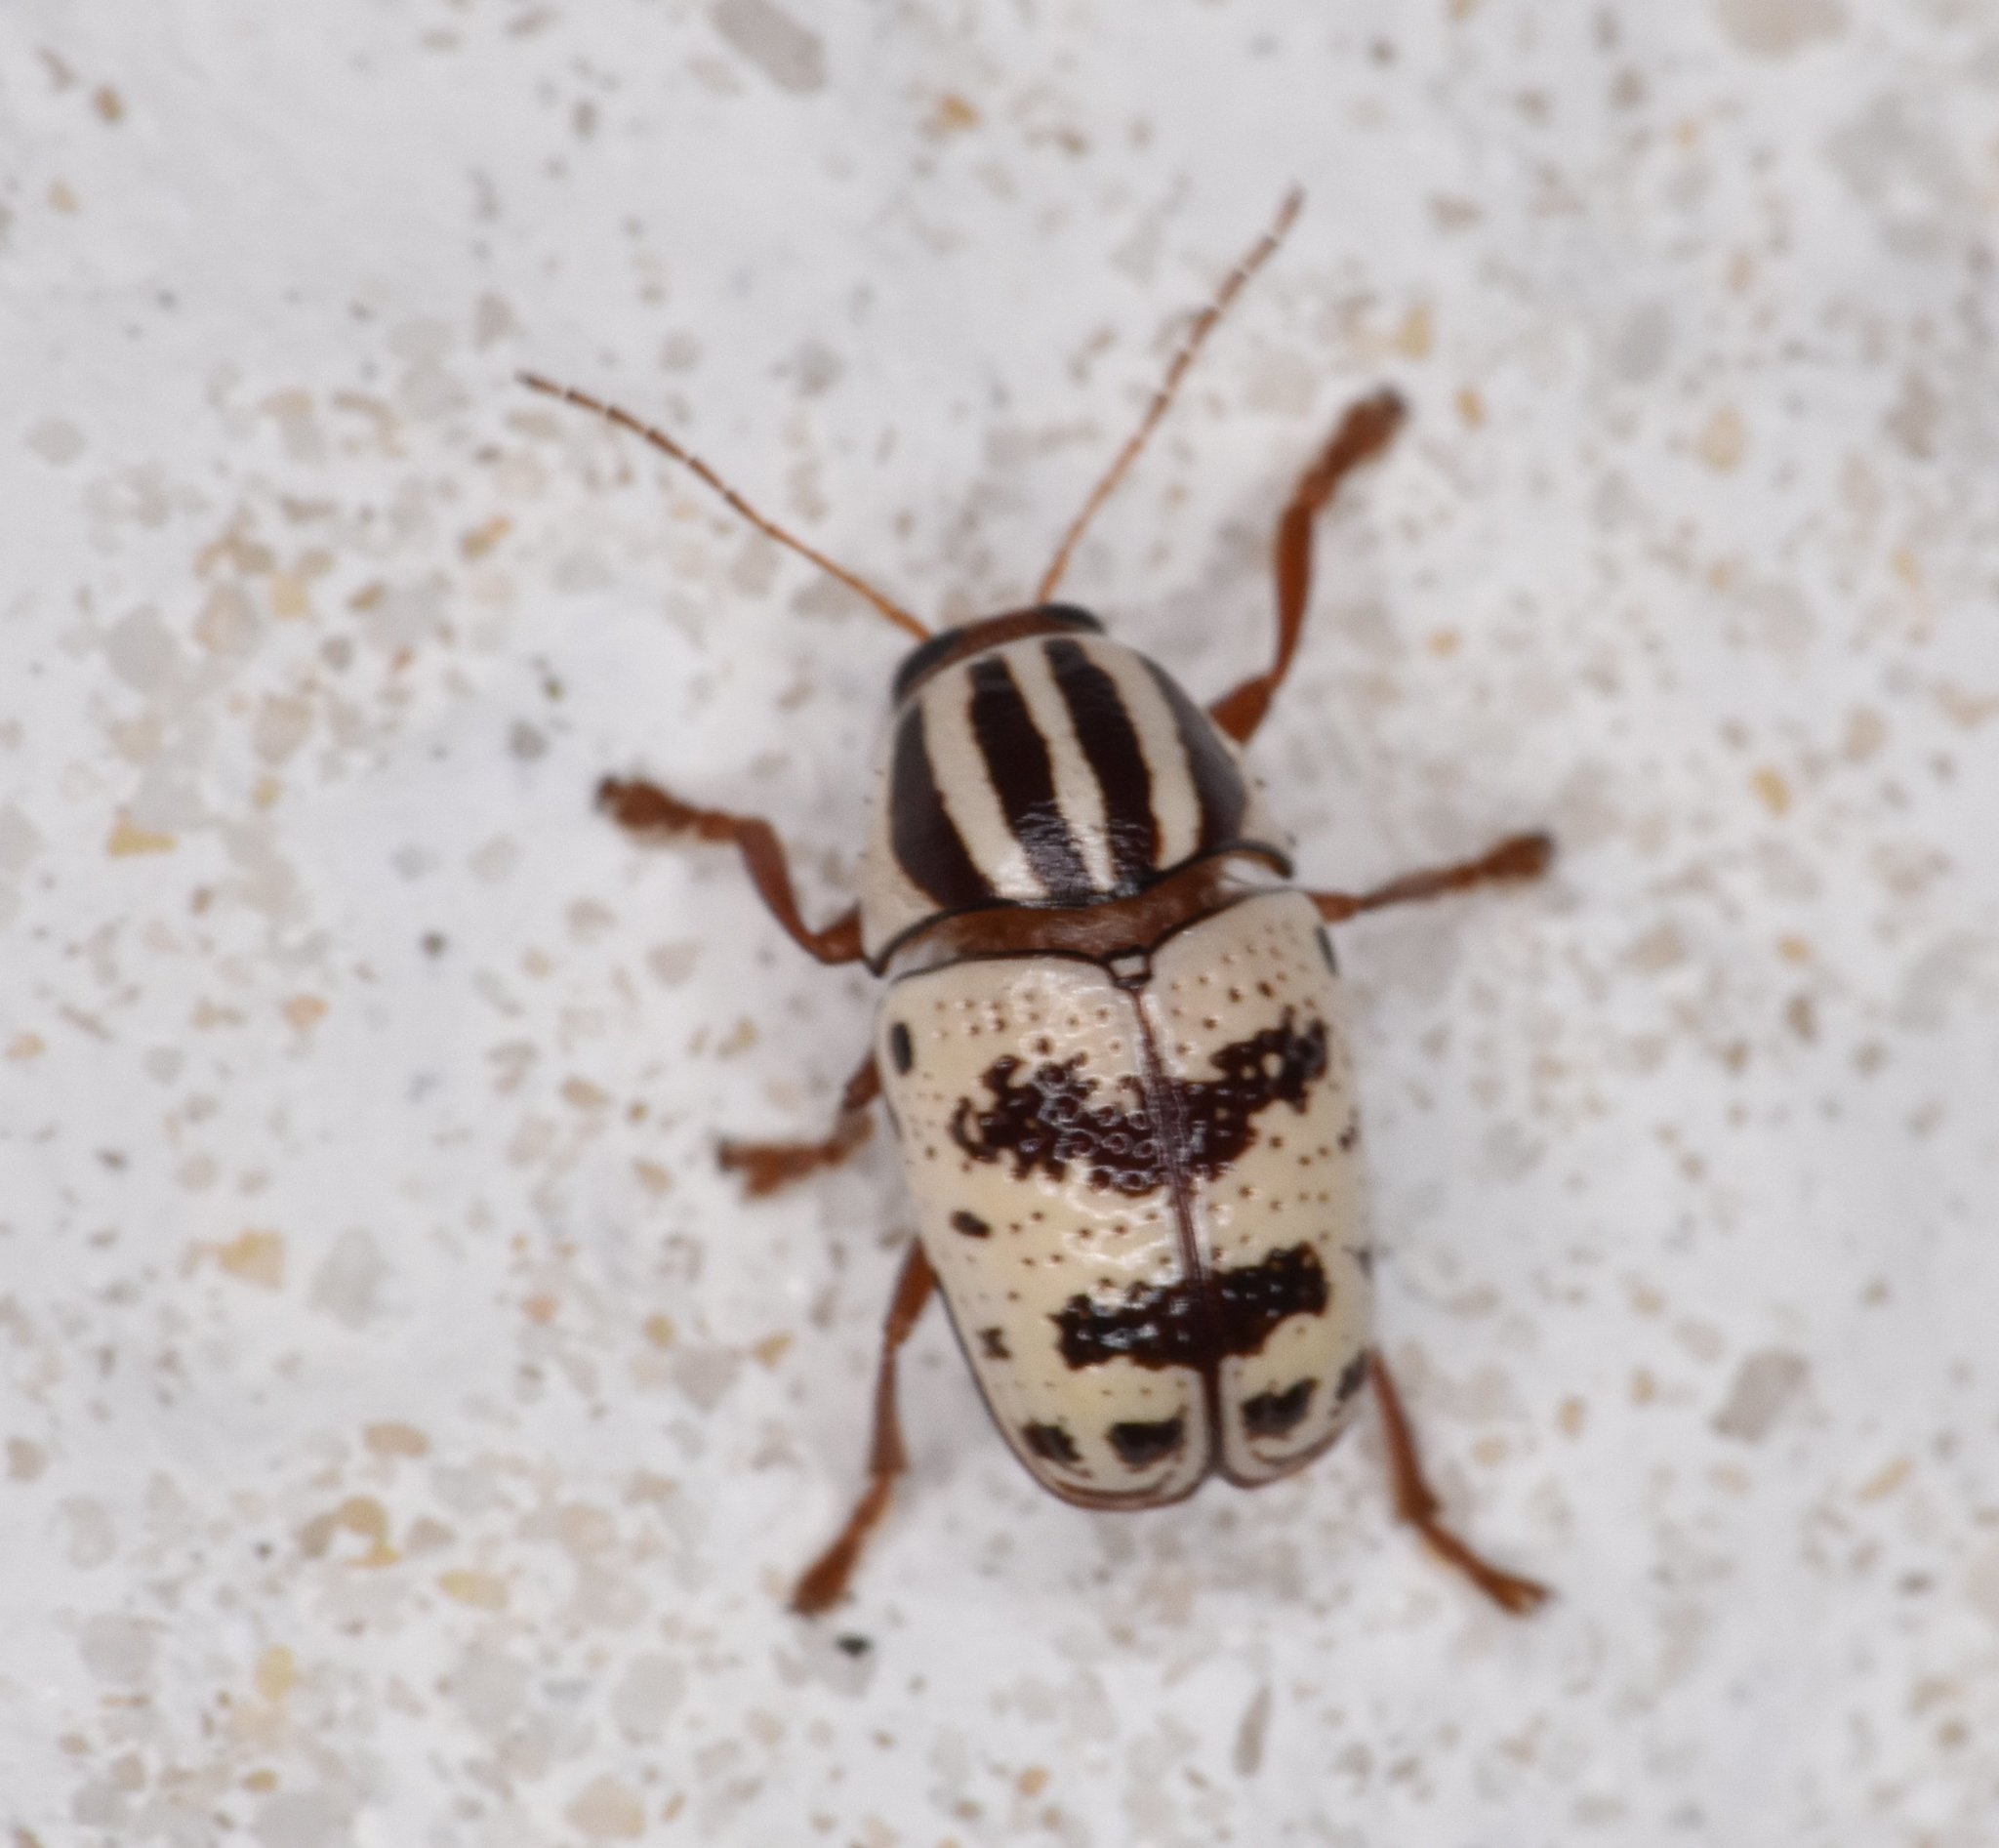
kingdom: Animalia
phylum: Arthropoda
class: Insecta
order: Coleoptera
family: Chrysomelidae
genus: Cryptocephalus
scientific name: Cryptocephalus leucomelas
